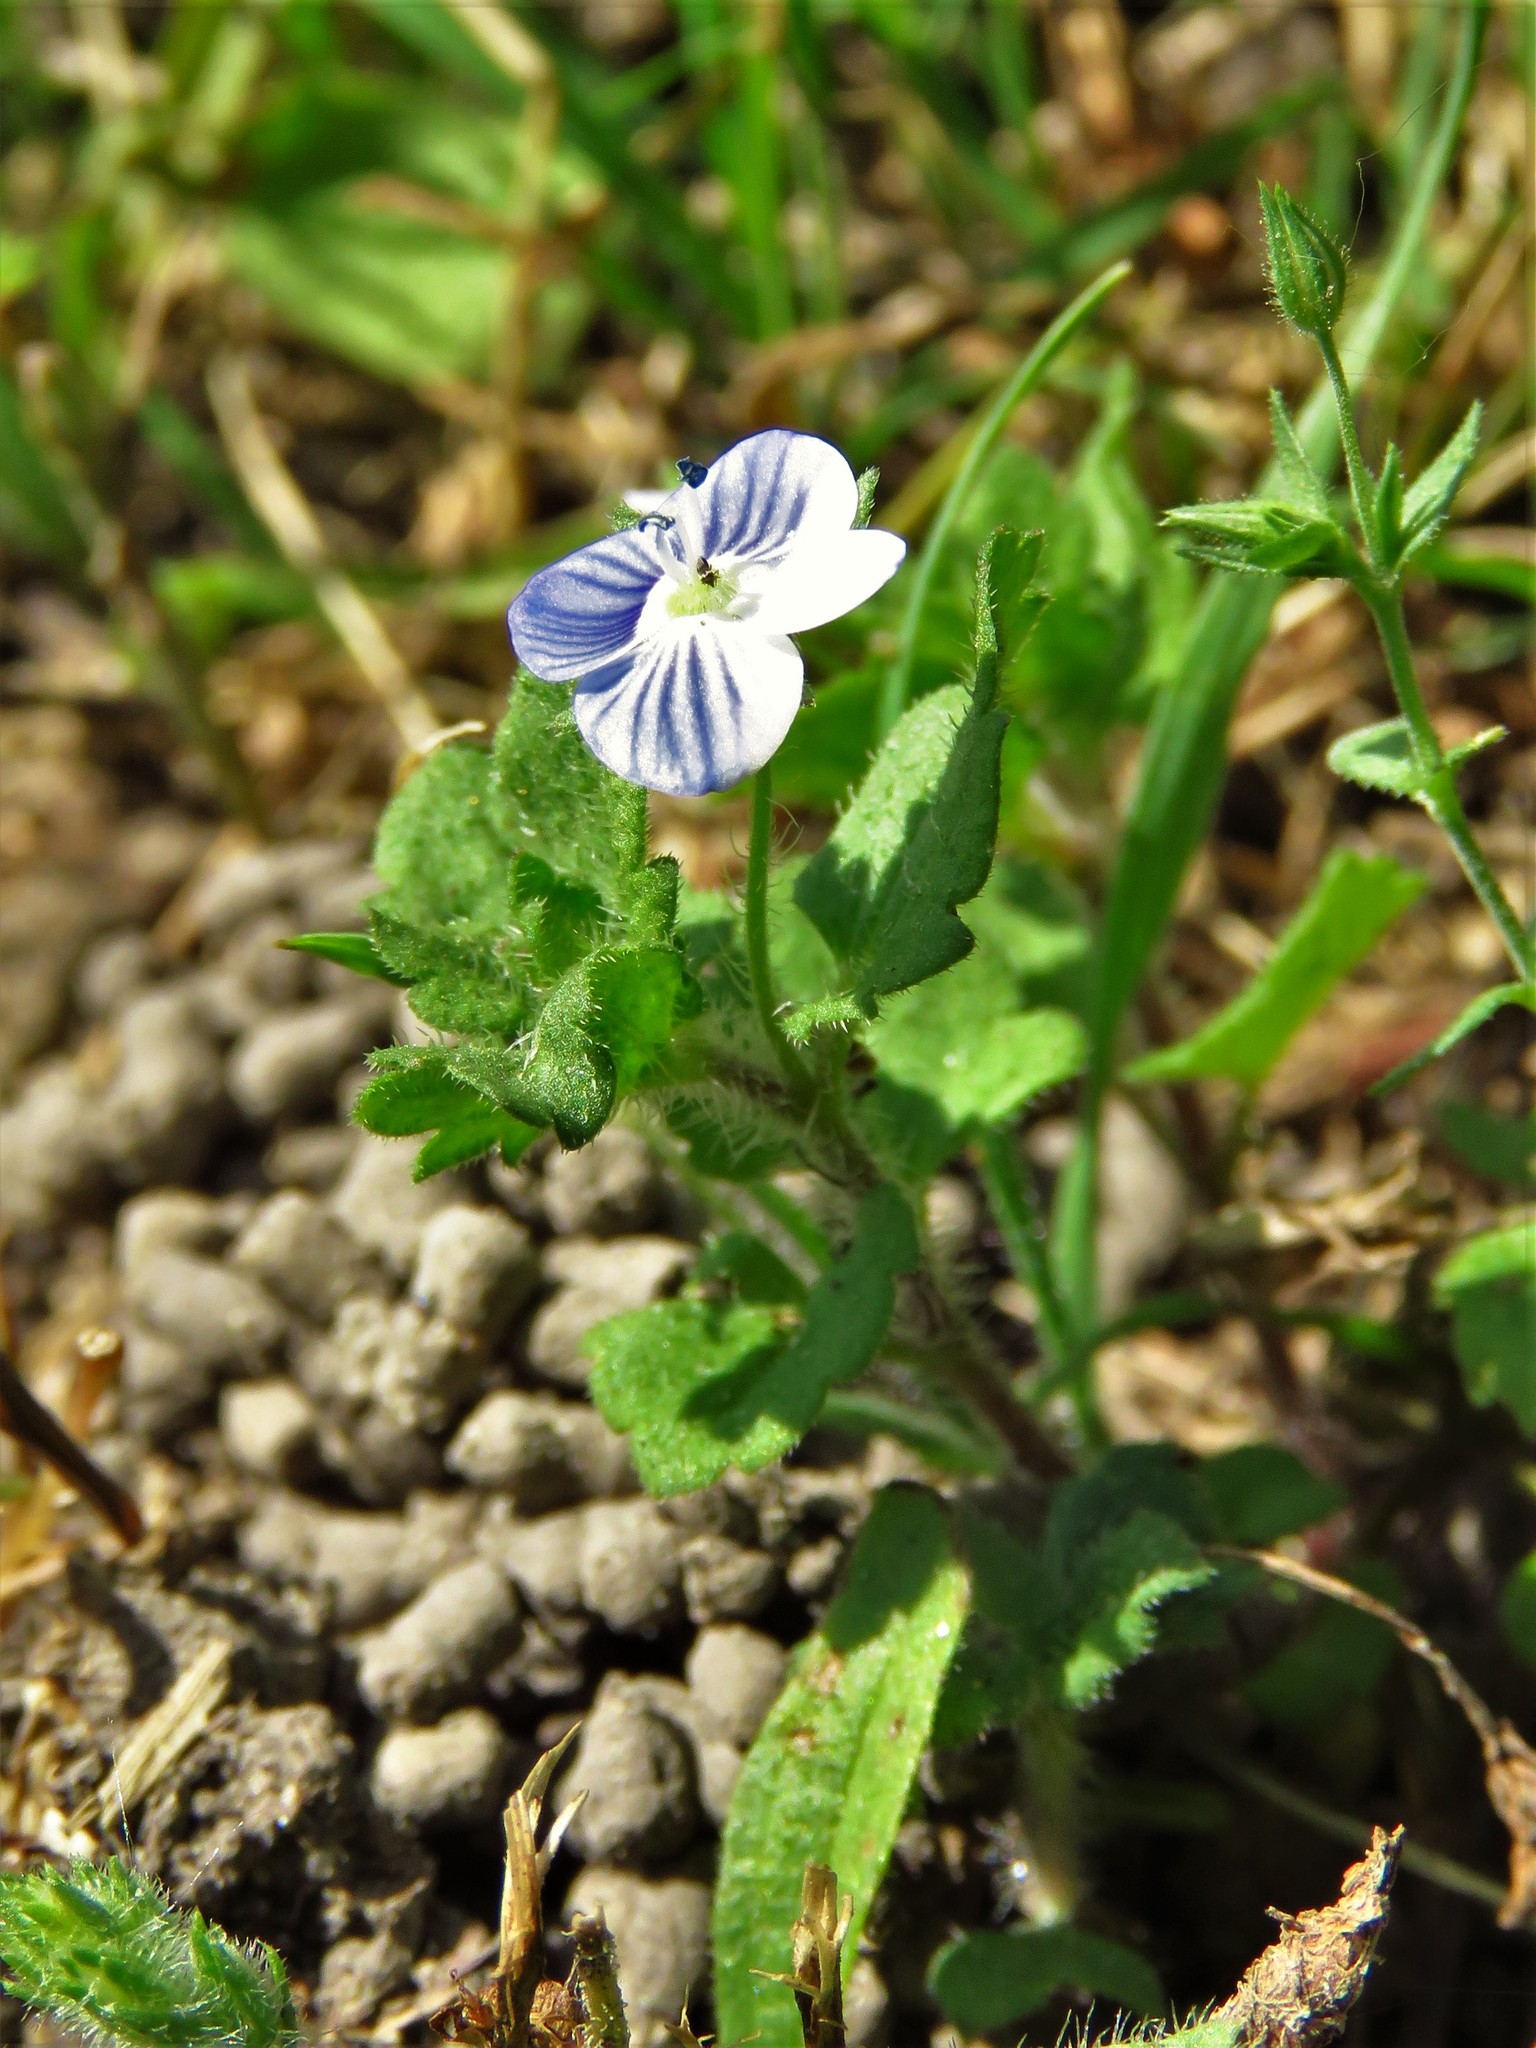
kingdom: Plantae
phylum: Tracheophyta
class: Magnoliopsida
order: Lamiales
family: Plantaginaceae
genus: Veronica
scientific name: Veronica persica
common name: Common field-speedwell
